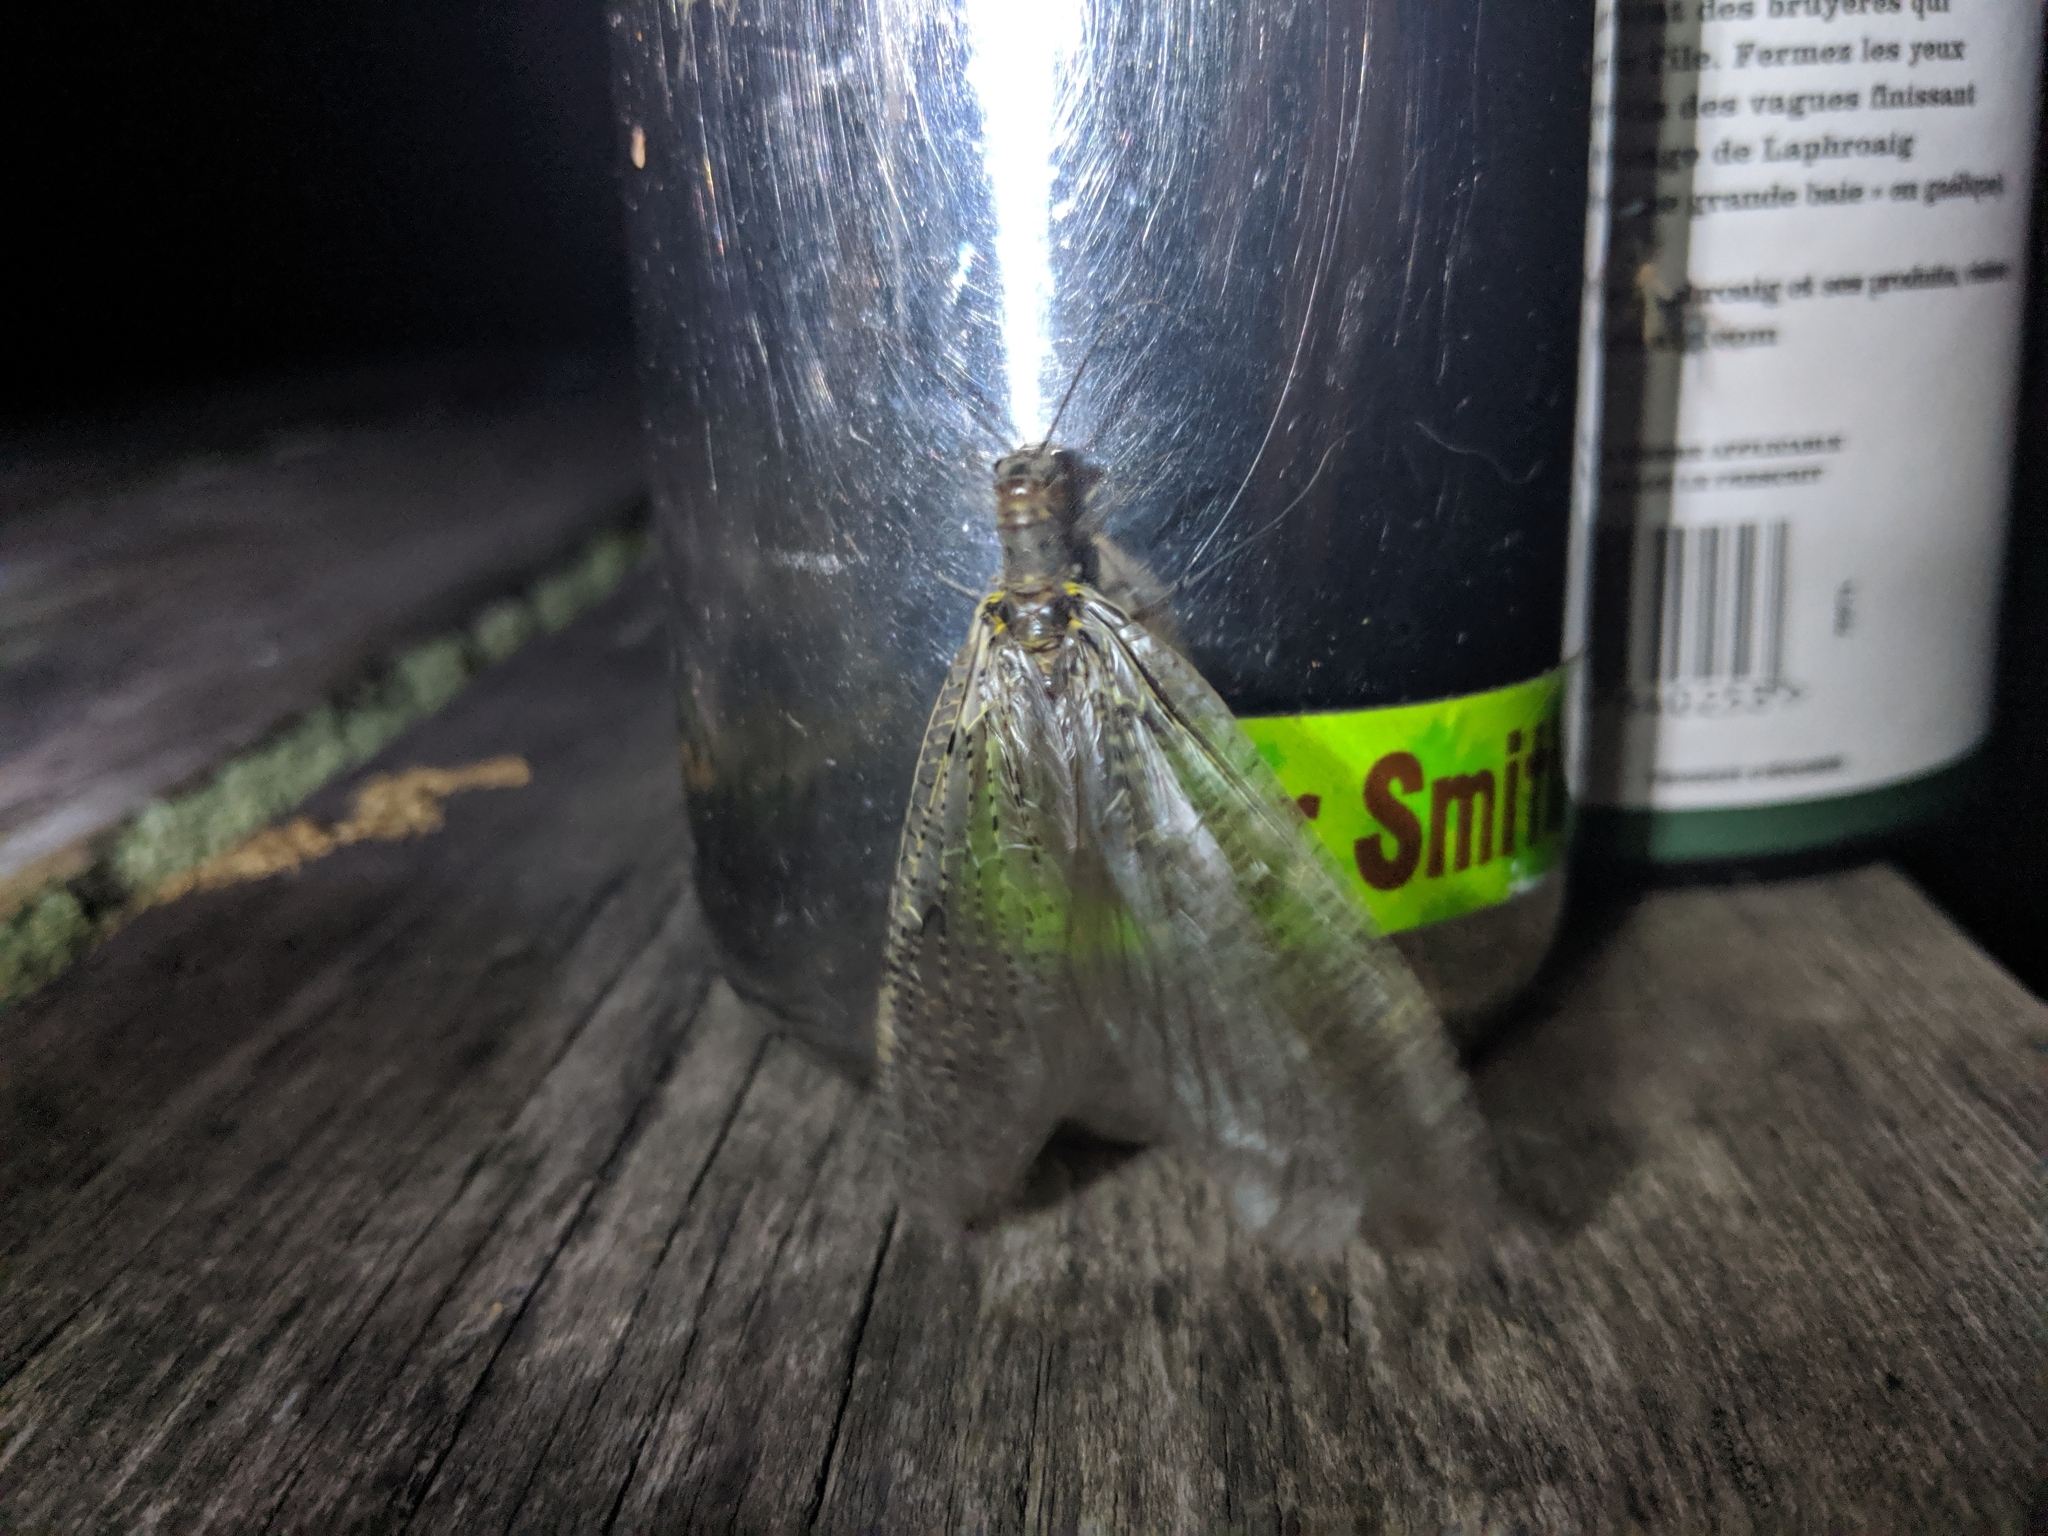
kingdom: Animalia
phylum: Arthropoda
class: Insecta
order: Megaloptera
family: Corydalidae
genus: Chauliodes
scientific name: Chauliodes rastricornis
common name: Spring fishfly
